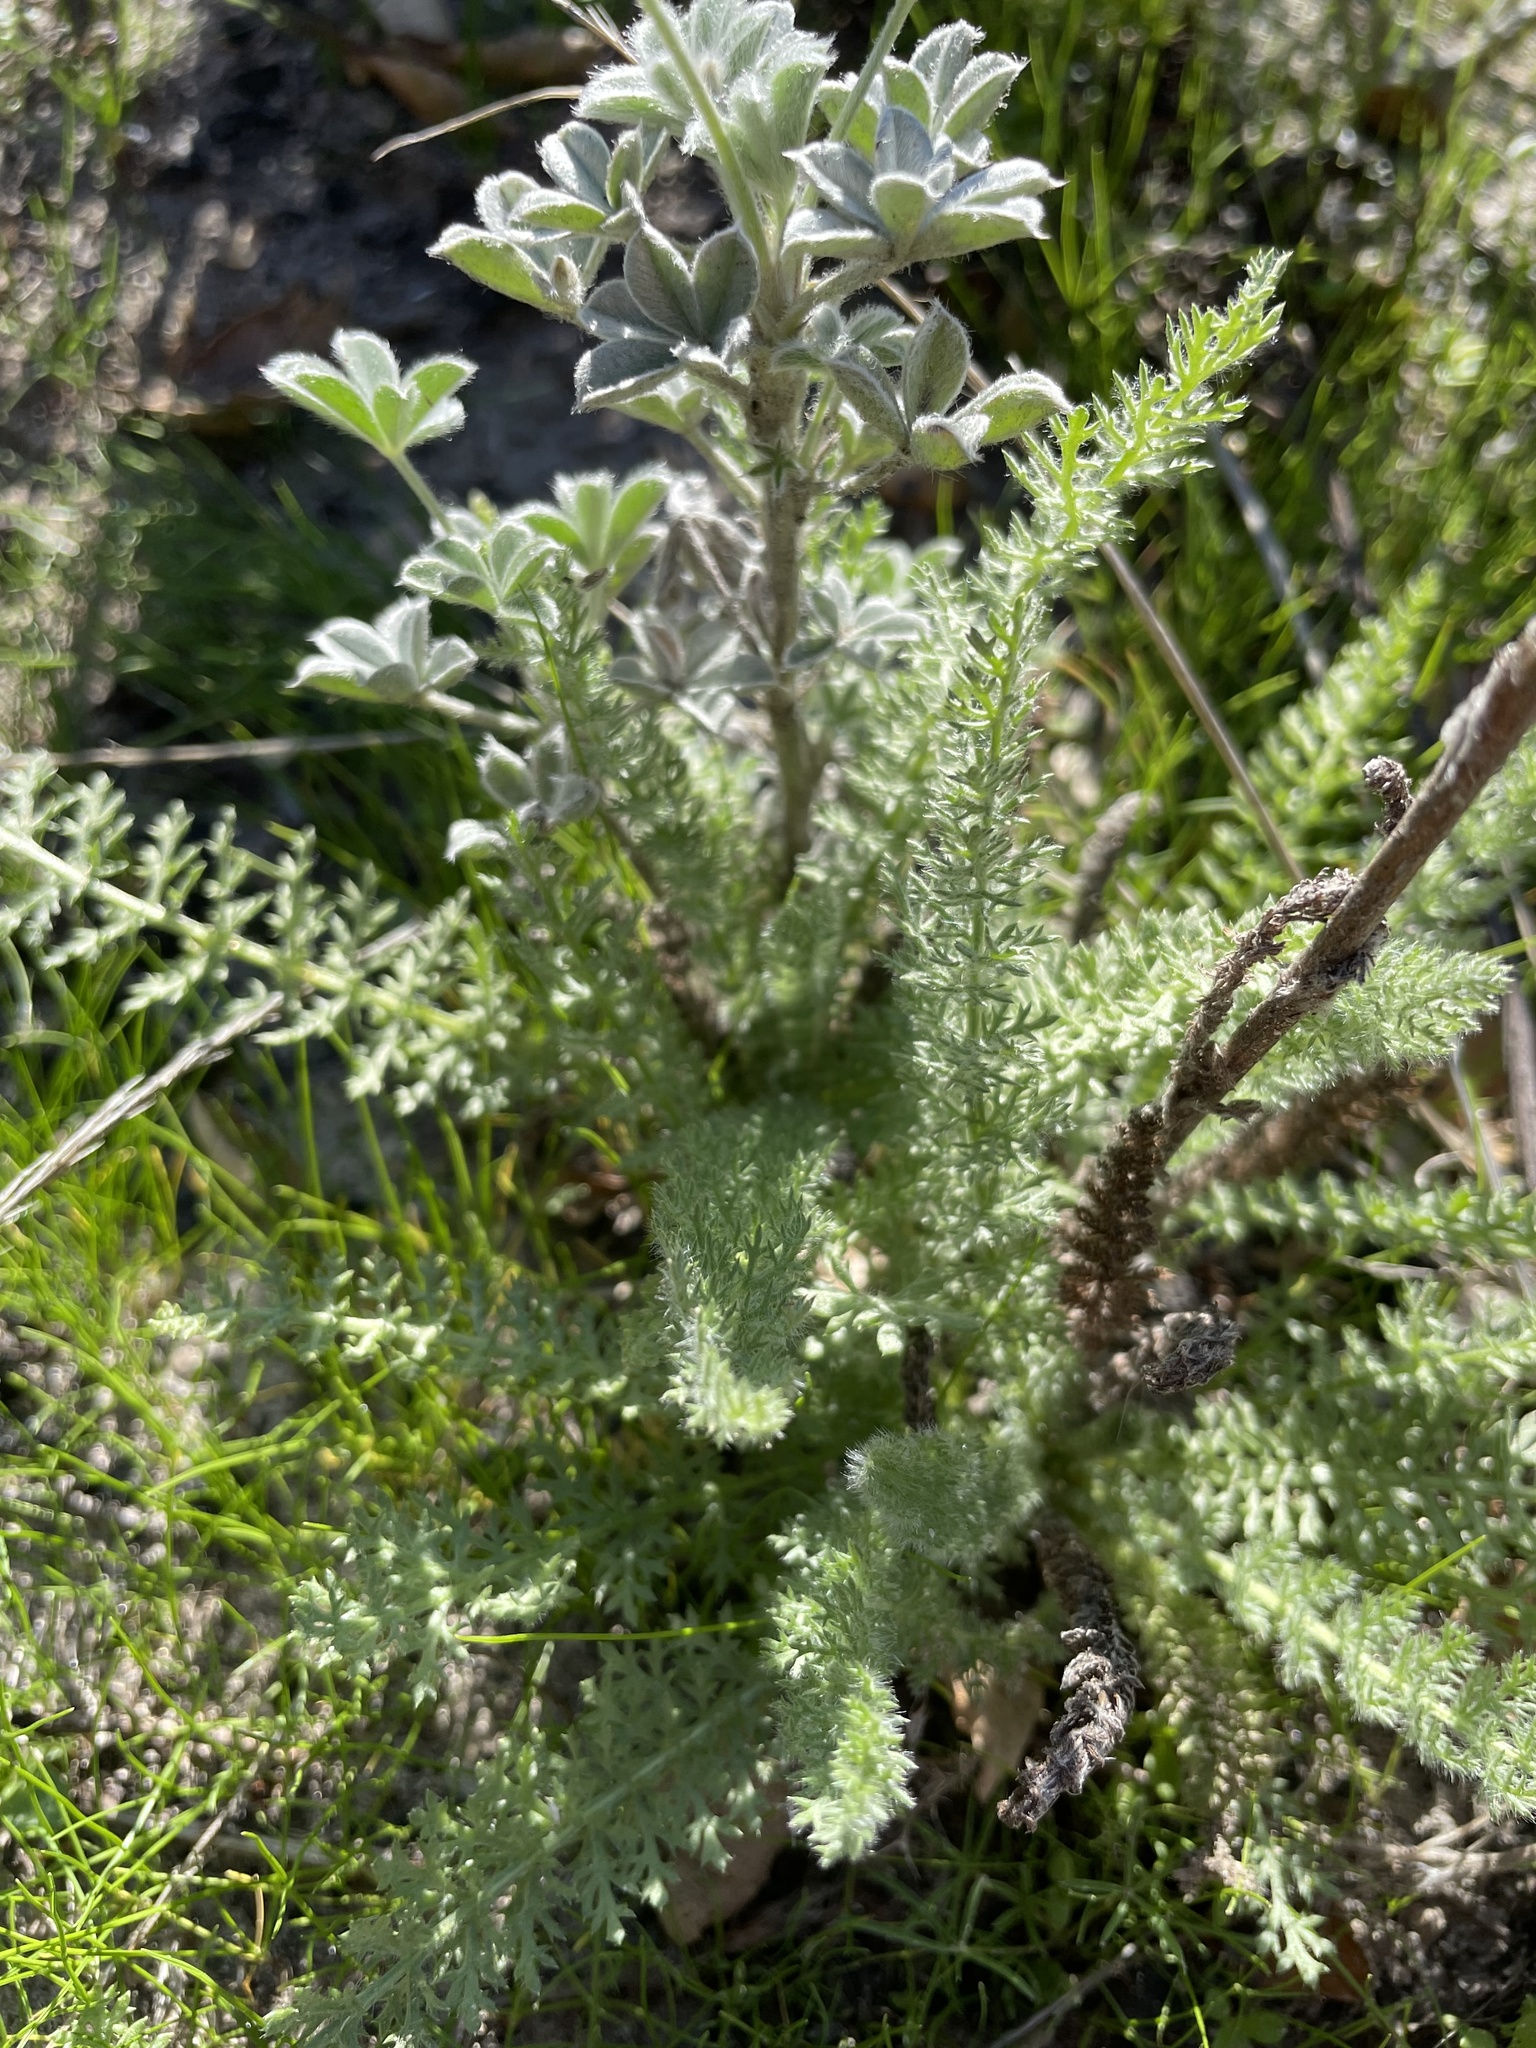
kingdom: Plantae
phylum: Tracheophyta
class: Magnoliopsida
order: Asterales
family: Asteraceae
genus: Achillea
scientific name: Achillea millefolium
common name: Yarrow
